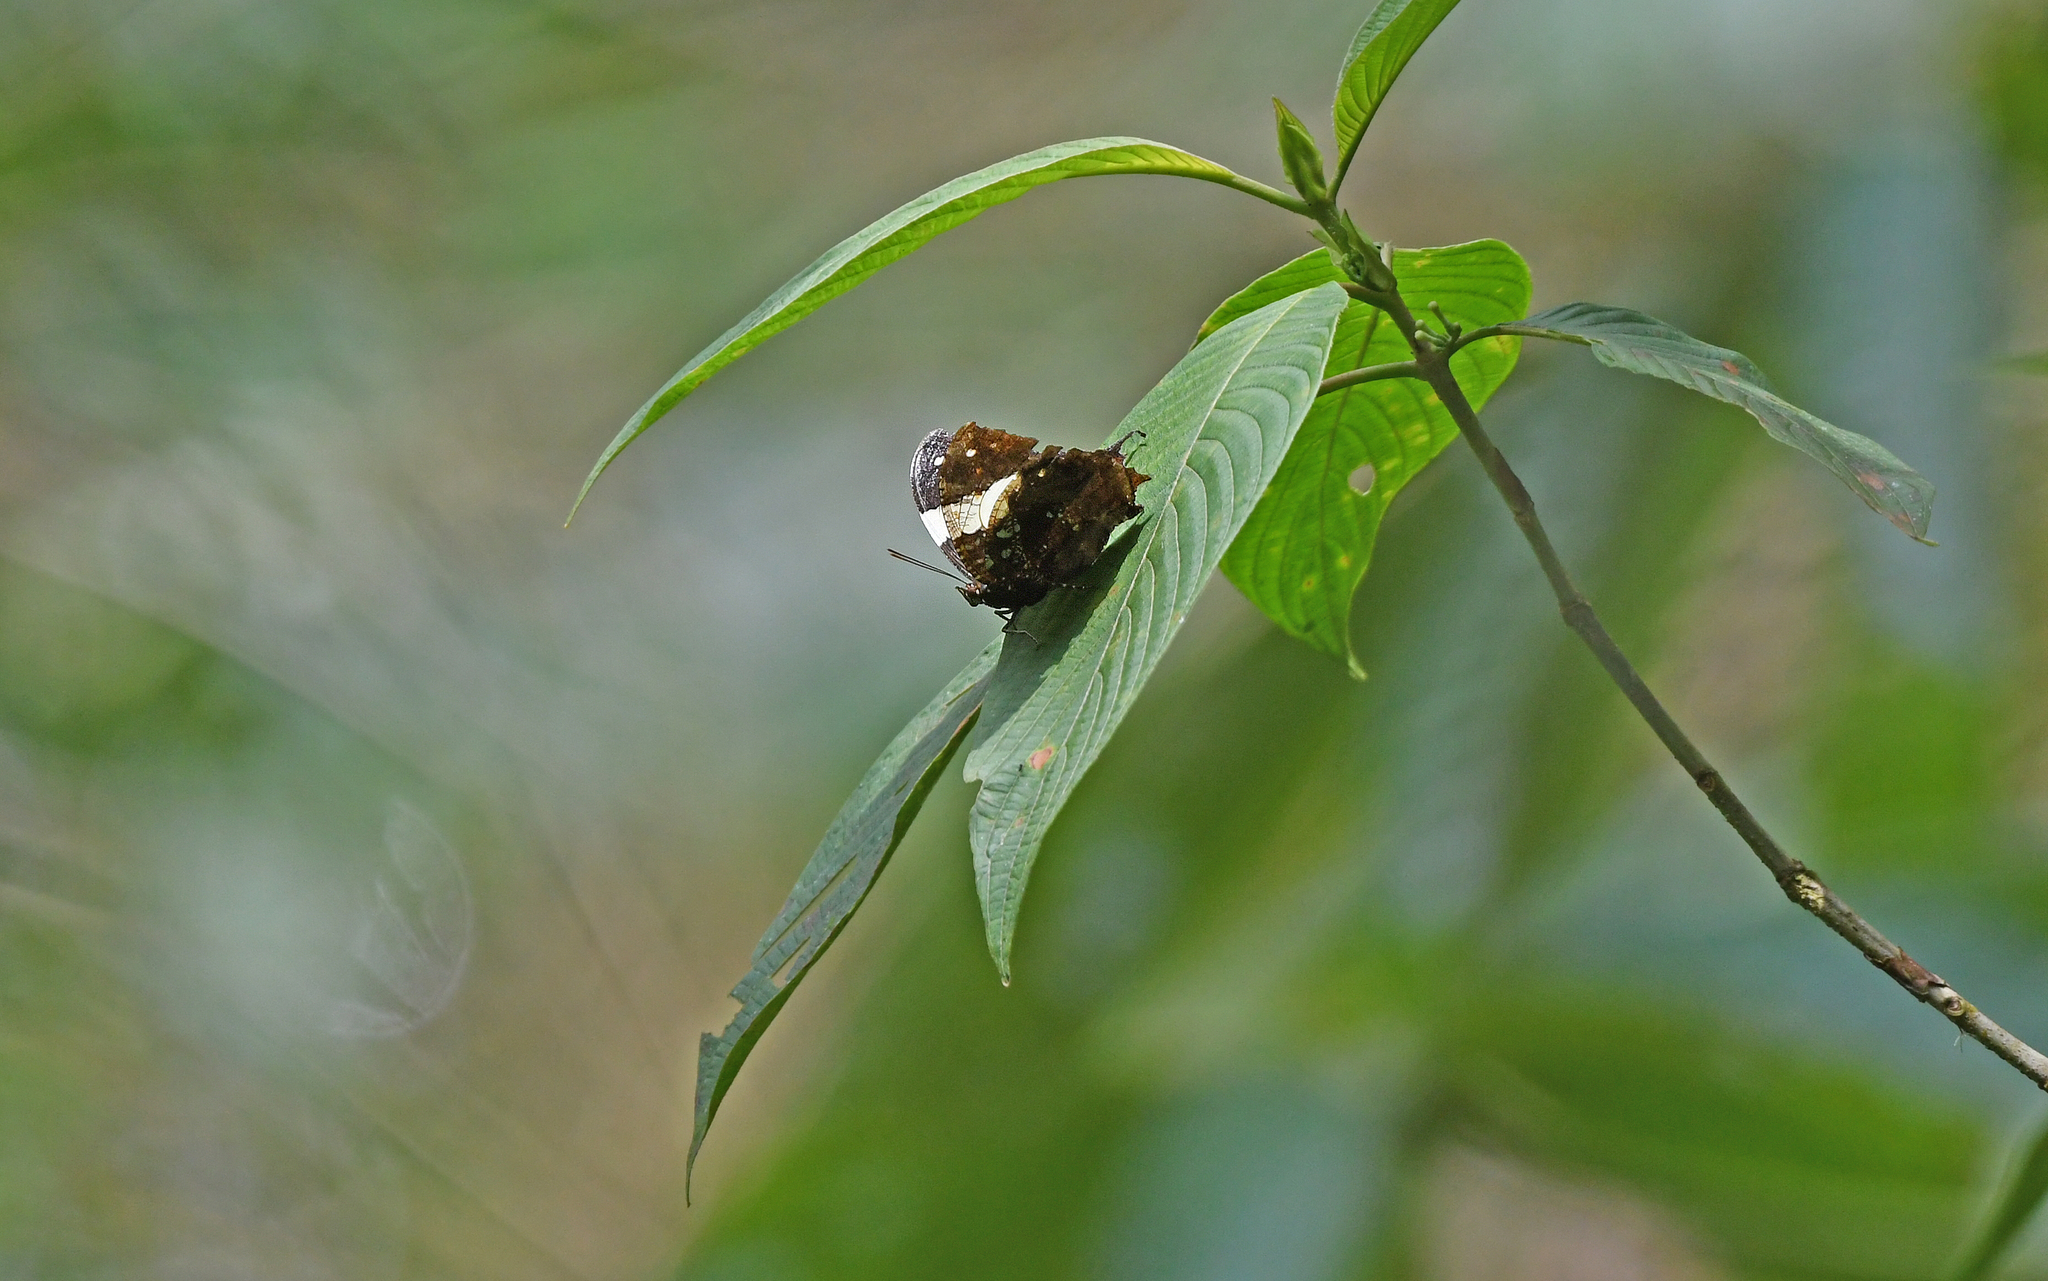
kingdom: Animalia
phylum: Arthropoda
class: Insecta
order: Lepidoptera
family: Nymphalidae
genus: Hypna
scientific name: Hypna clytemnestra
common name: Silver-studded leafwing
